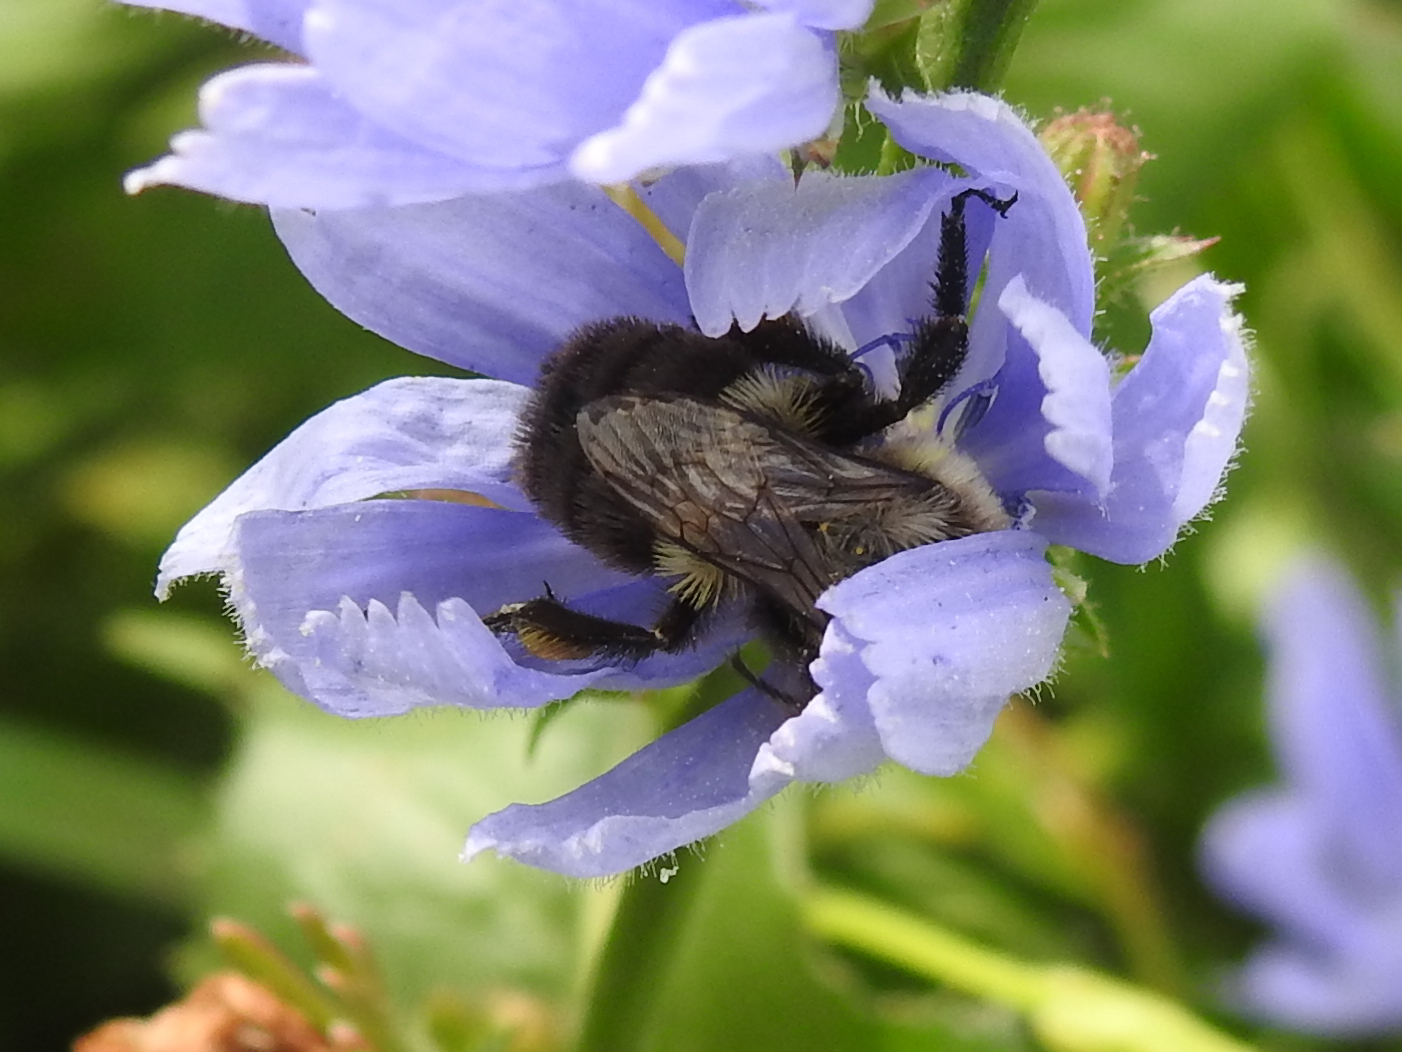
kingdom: Animalia
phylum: Arthropoda
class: Insecta
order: Hymenoptera
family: Apidae
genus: Bombus
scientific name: Bombus impatiens
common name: Common eastern bumble bee
